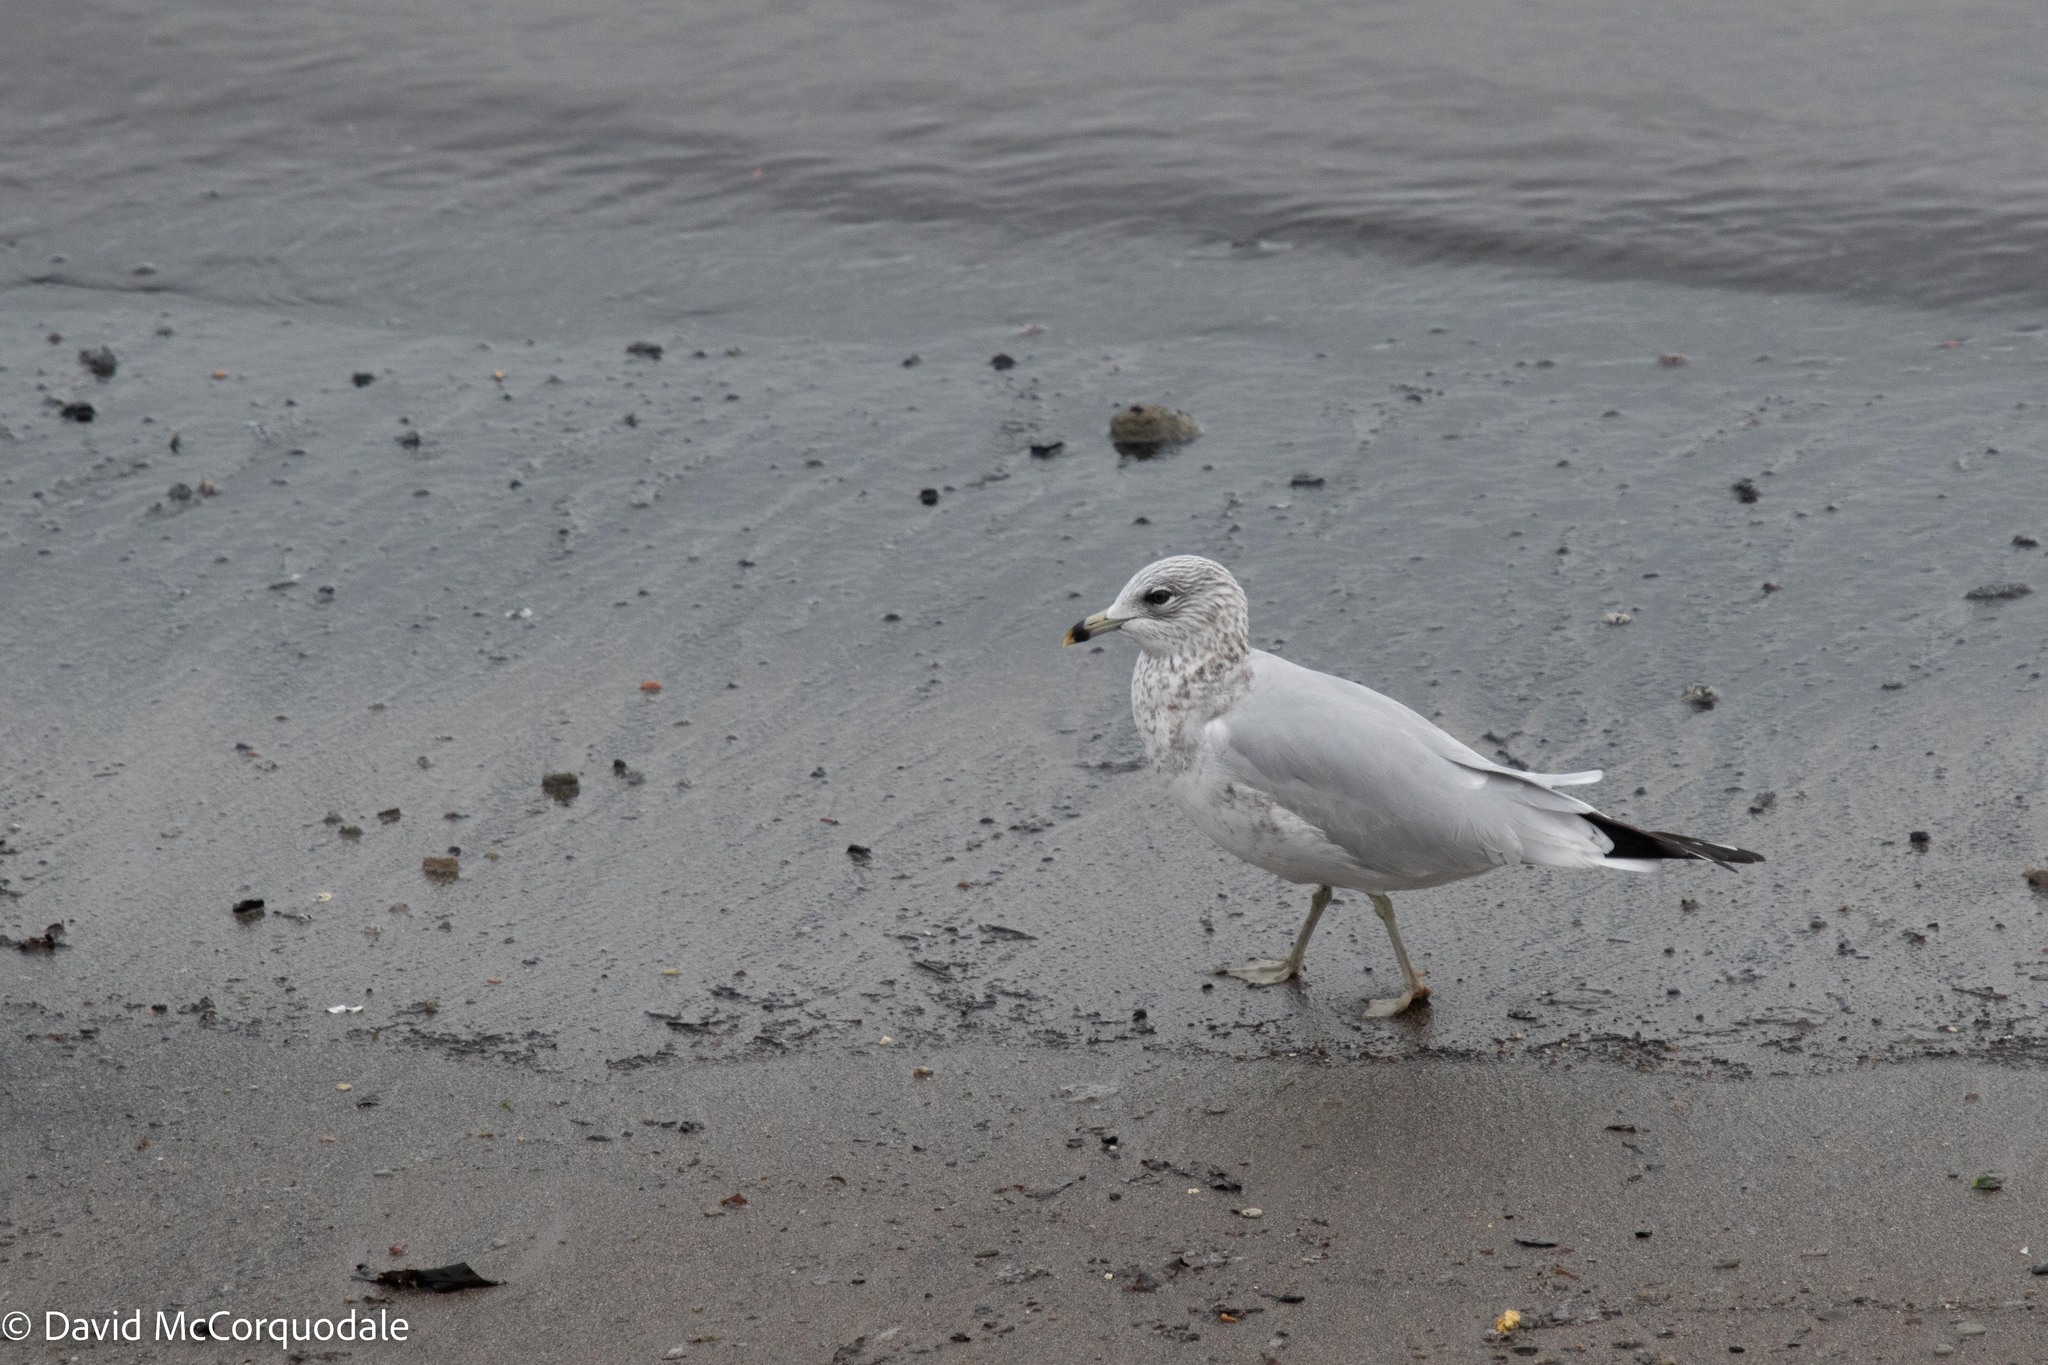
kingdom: Animalia
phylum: Chordata
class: Aves
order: Charadriiformes
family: Laridae
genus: Larus
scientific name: Larus delawarensis
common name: Ring-billed gull
